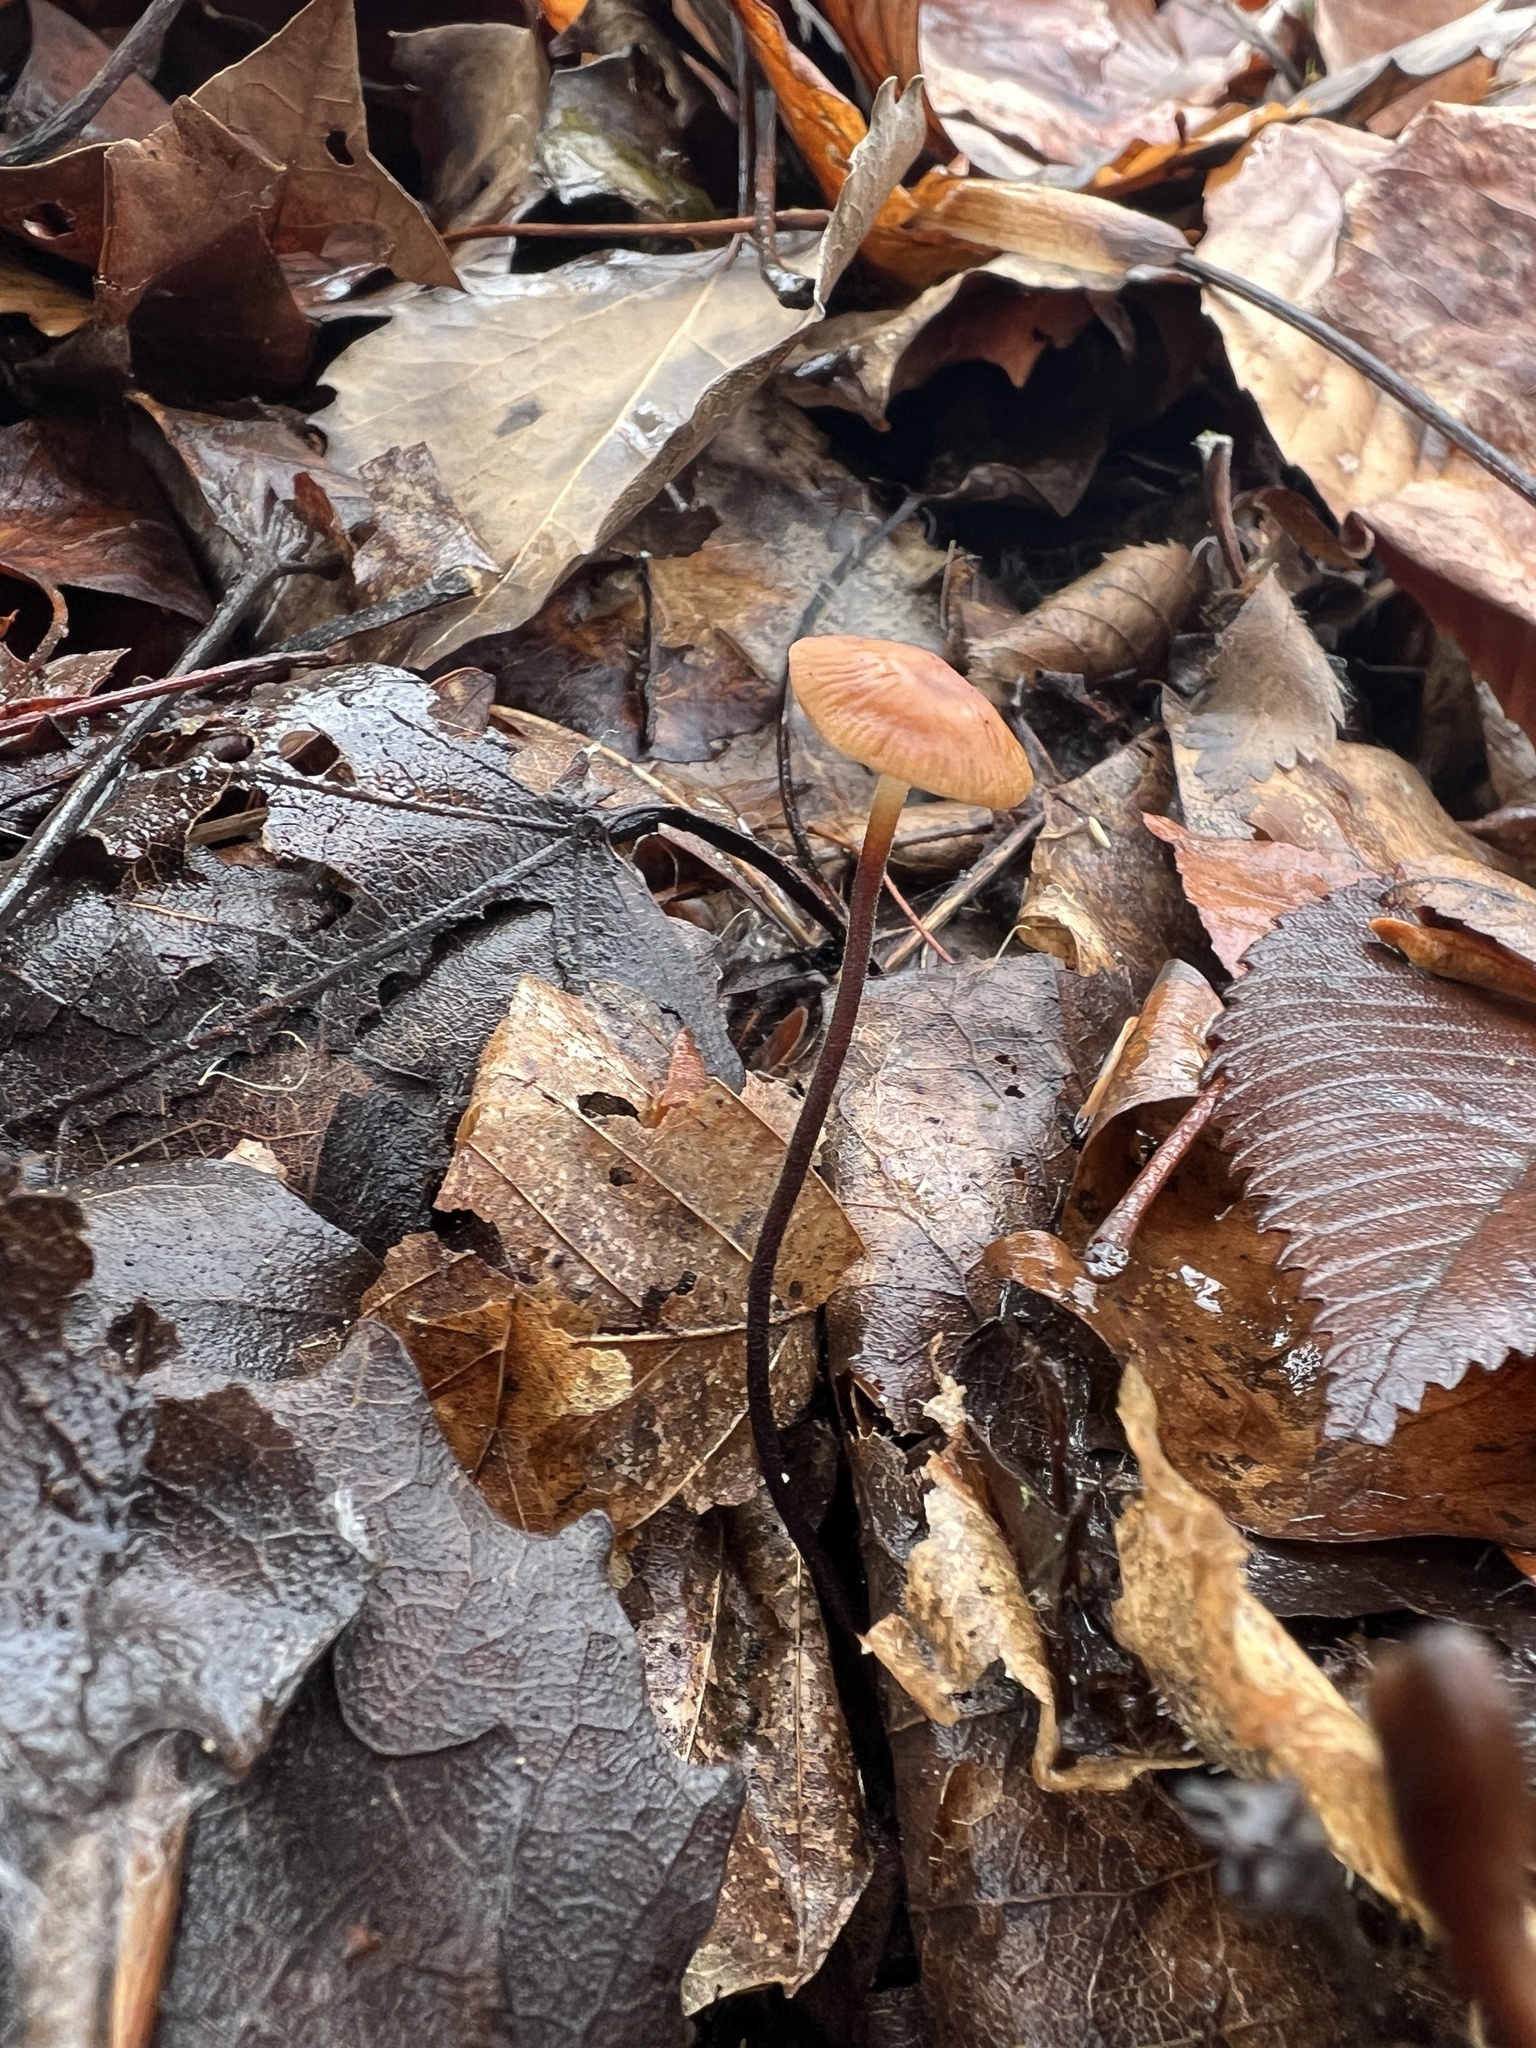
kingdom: Fungi
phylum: Basidiomycota
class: Agaricomycetes
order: Agaricales
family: Physalacriaceae
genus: Rhizomarasmius
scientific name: Rhizomarasmius pyrrhocephalus
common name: Hairy long stem marasmius
